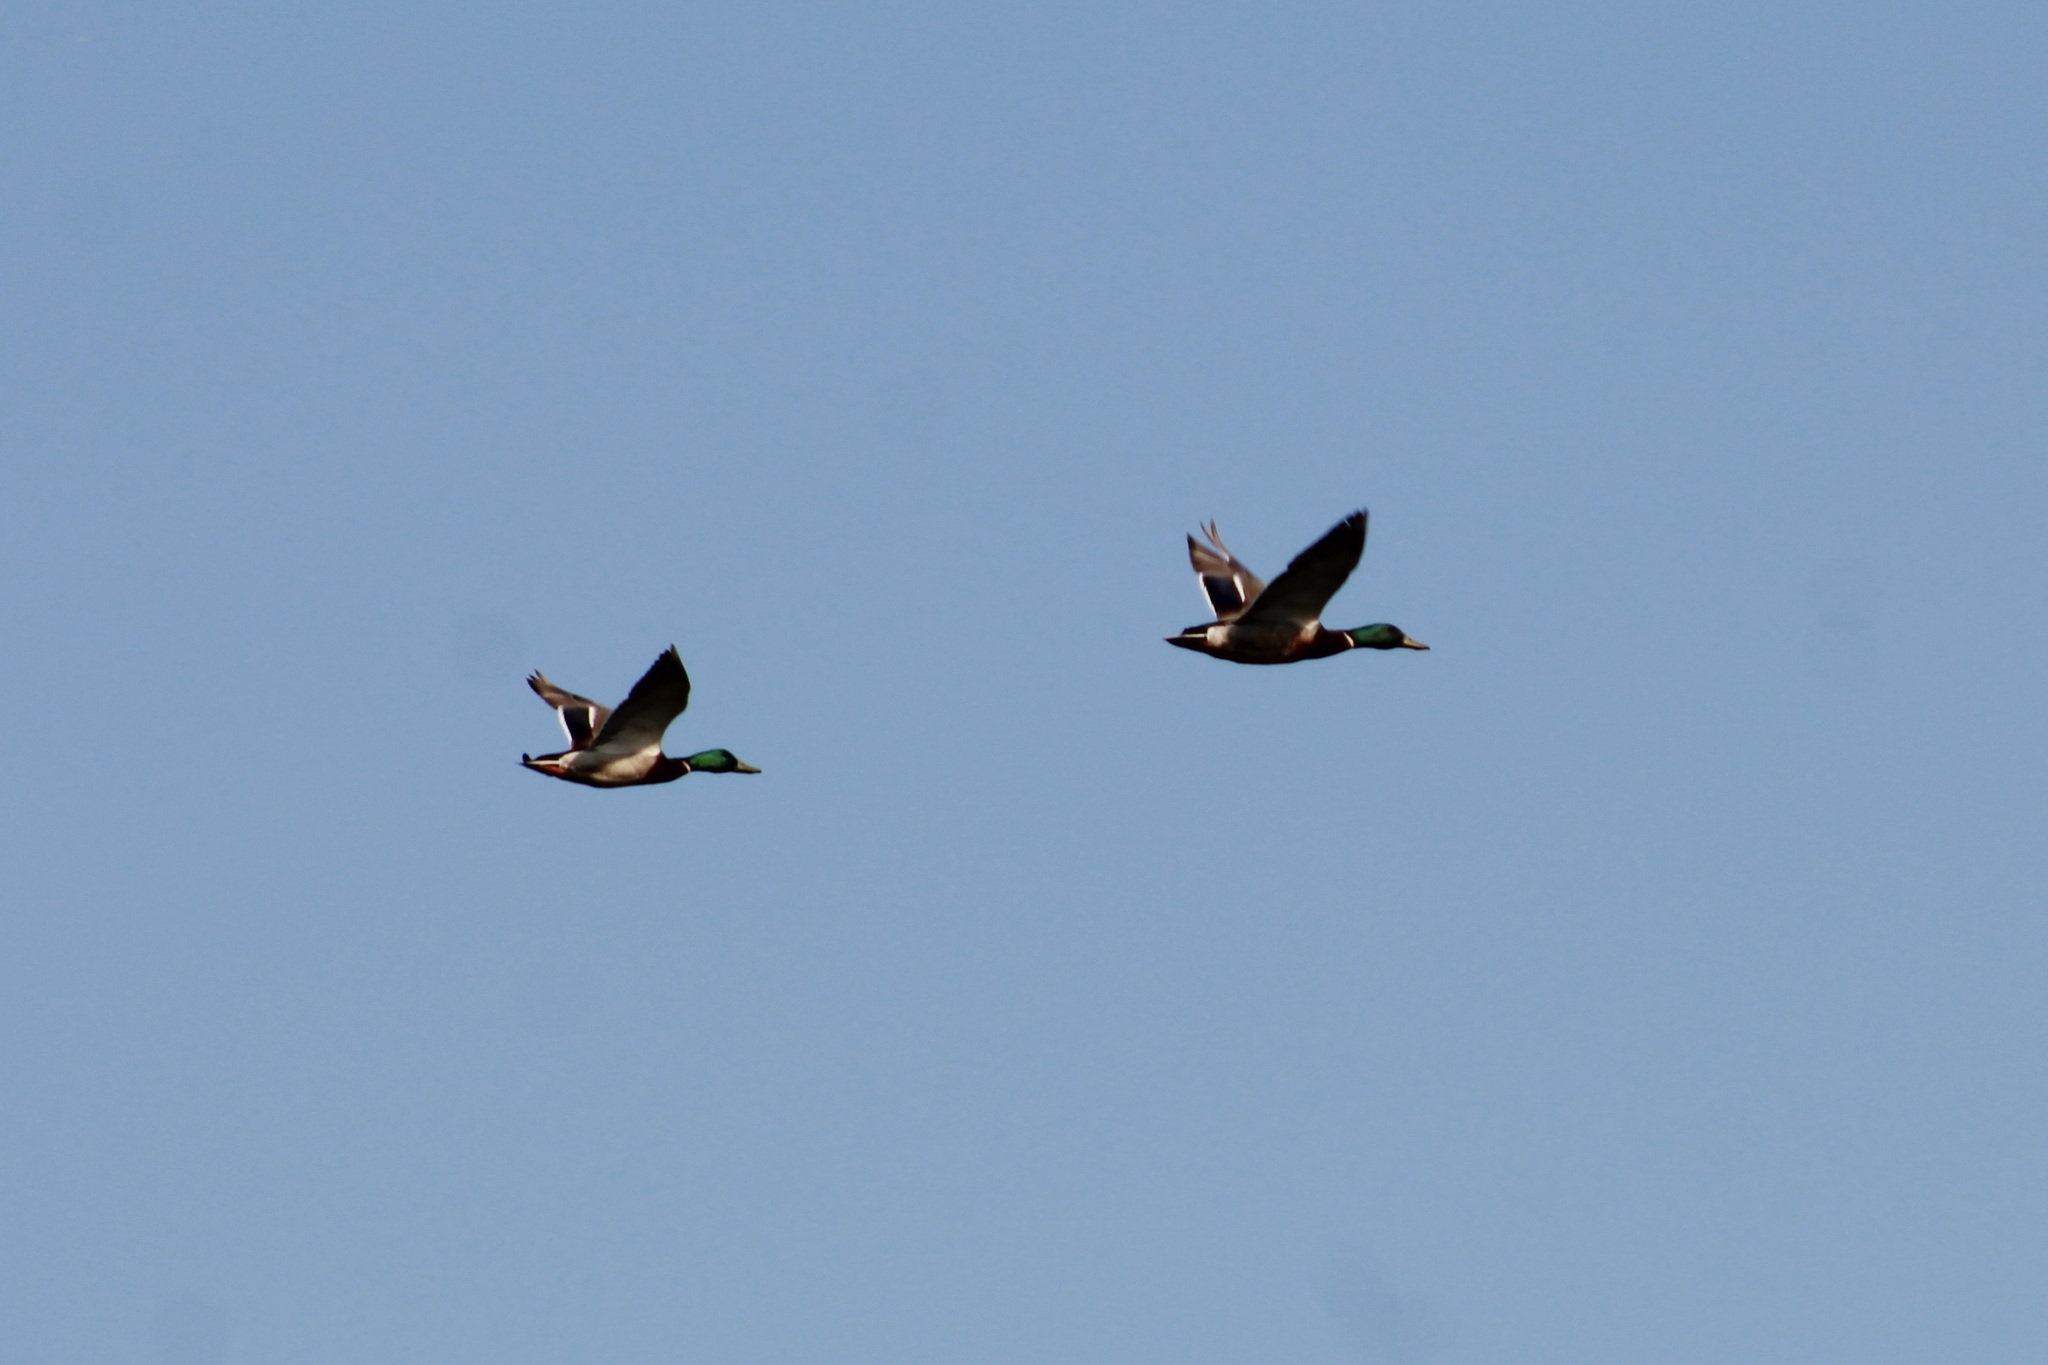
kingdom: Animalia
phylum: Chordata
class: Aves
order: Anseriformes
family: Anatidae
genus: Anas
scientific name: Anas platyrhynchos
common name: Mallard
